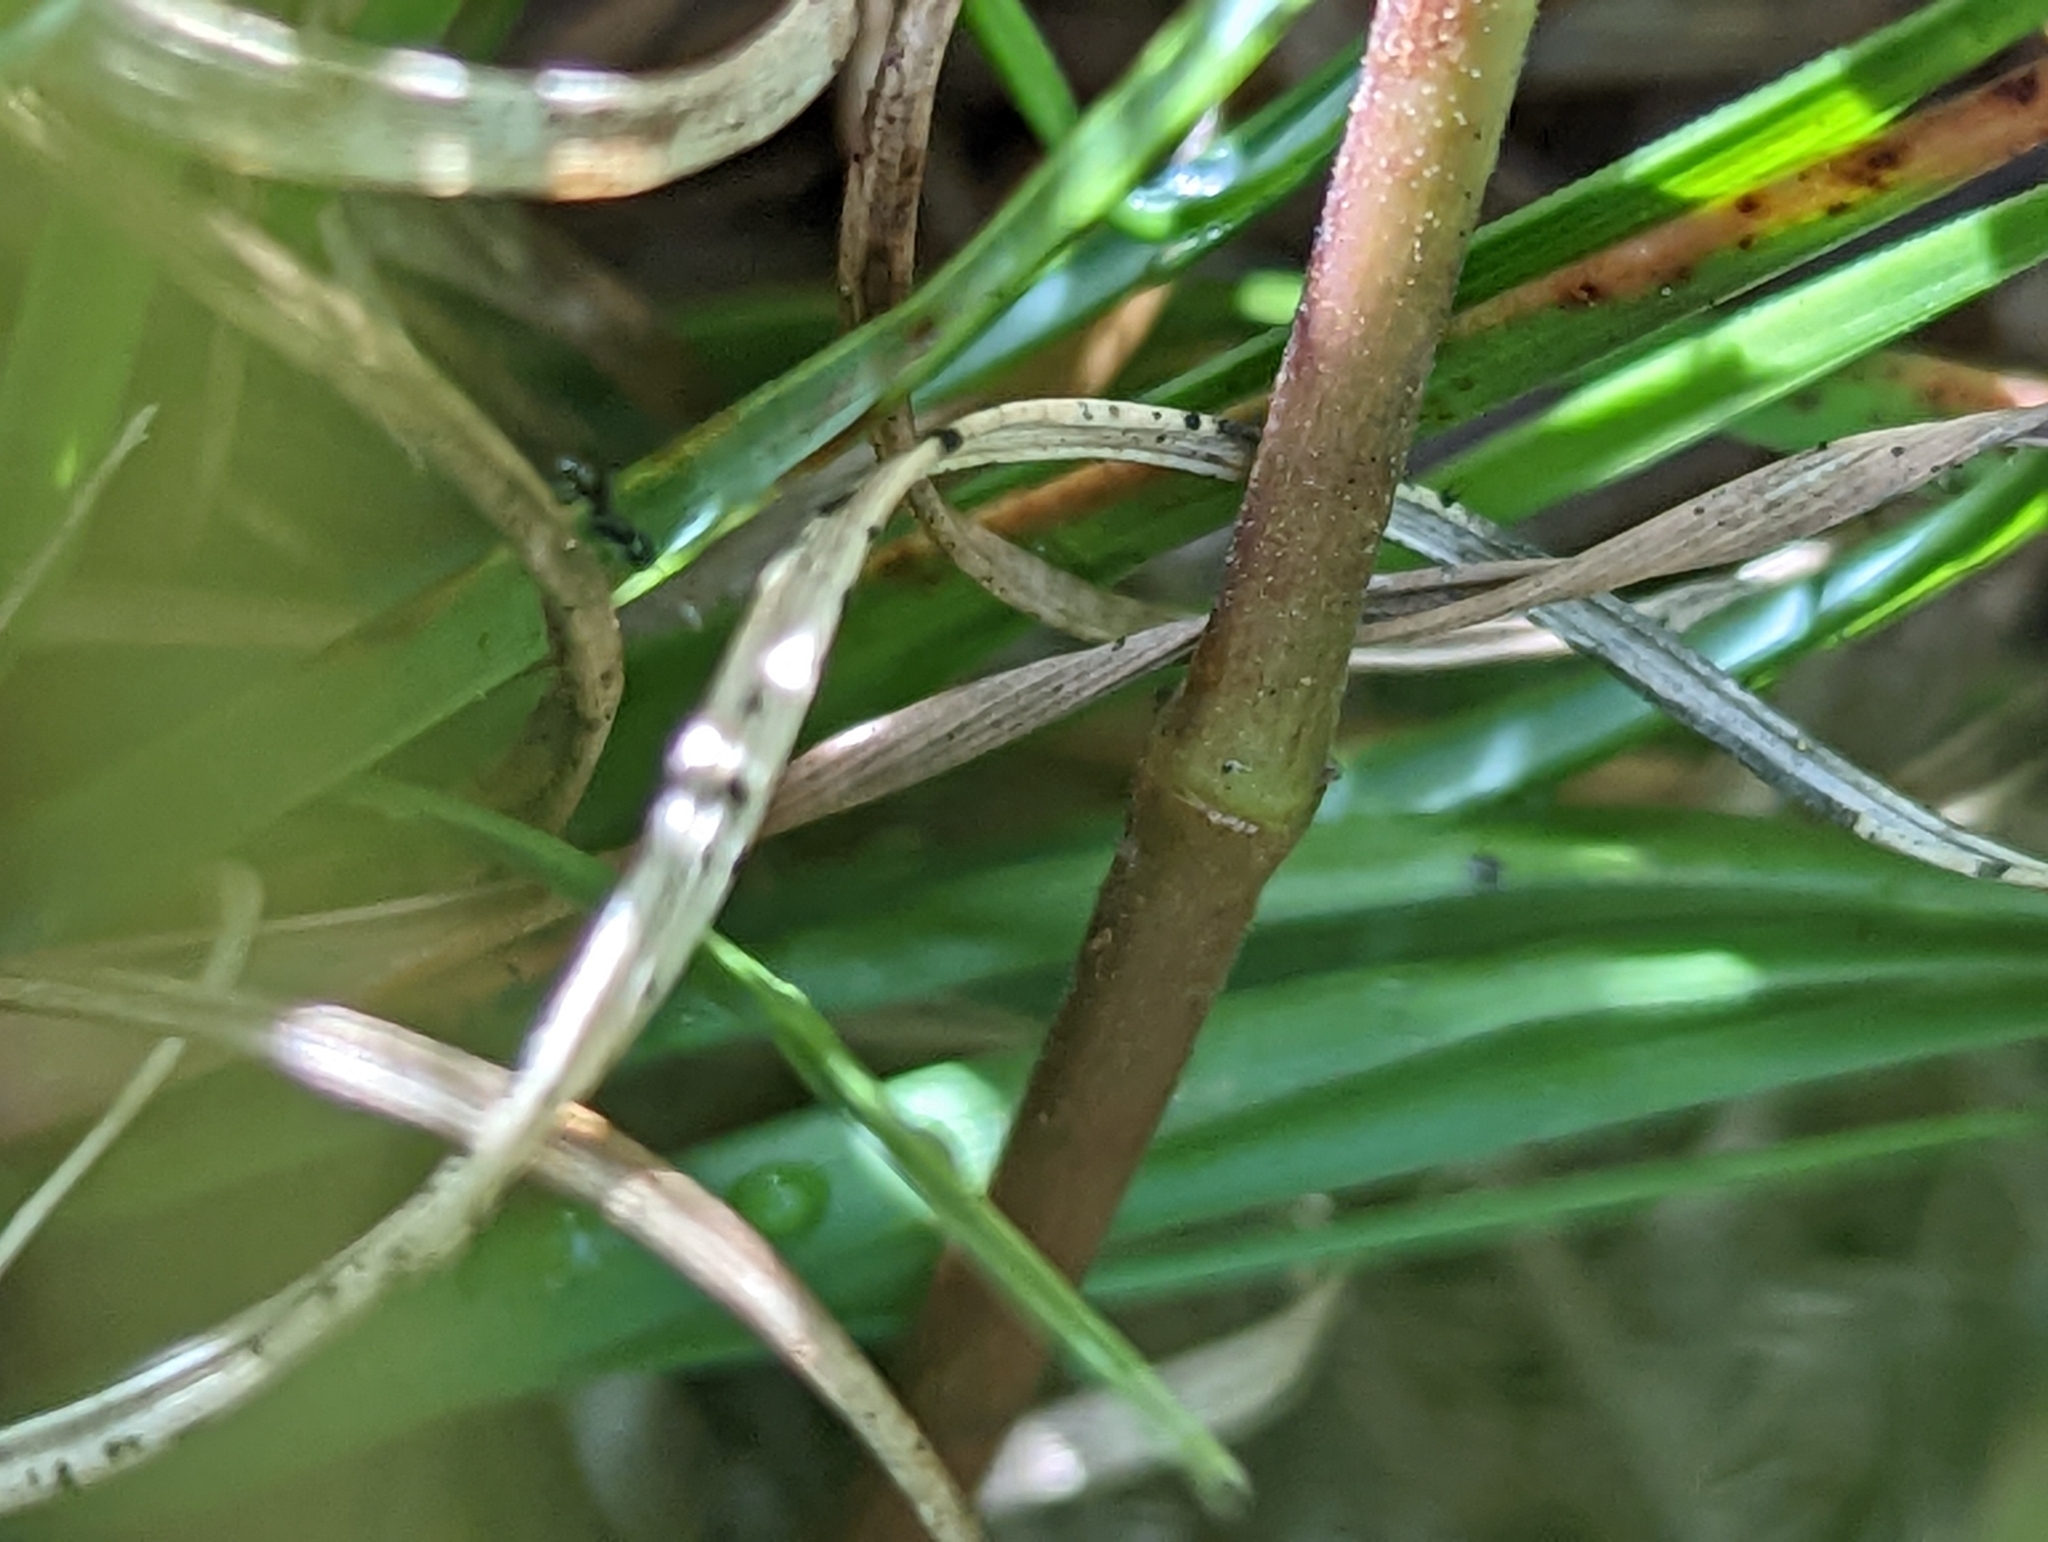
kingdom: Plantae
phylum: Tracheophyta
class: Magnoliopsida
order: Malpighiales
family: Euphorbiaceae
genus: Euphorbia
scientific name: Euphorbia nutans
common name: Eyebane
